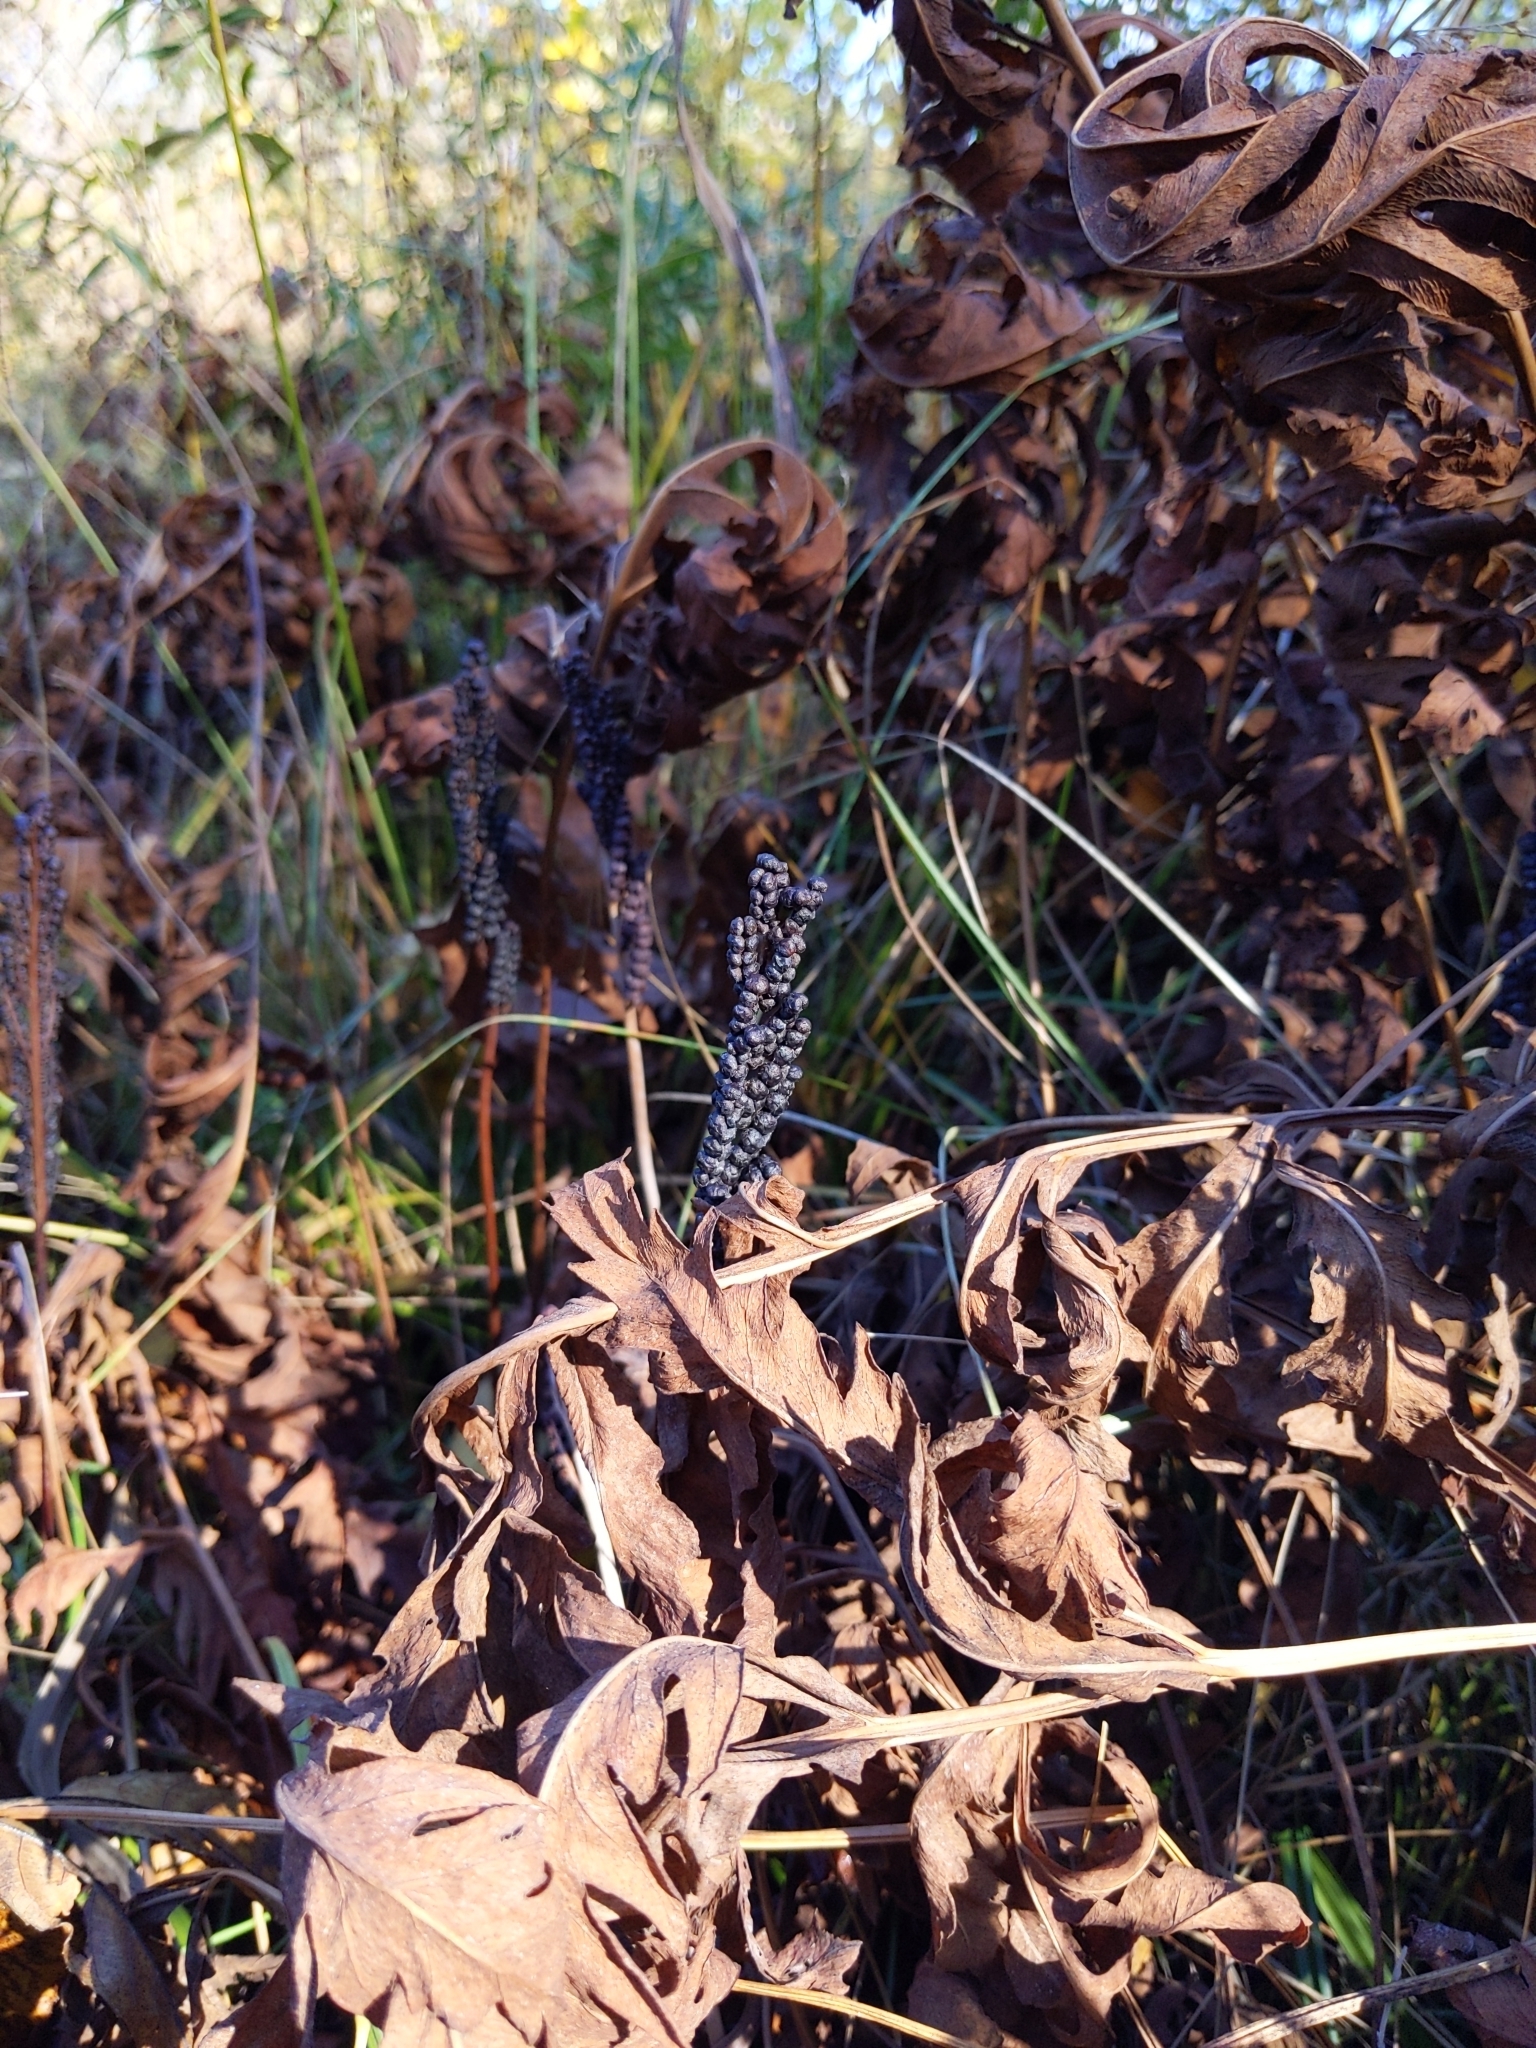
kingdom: Plantae
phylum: Tracheophyta
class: Polypodiopsida
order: Polypodiales
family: Onocleaceae
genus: Onoclea
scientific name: Onoclea sensibilis
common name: Sensitive fern
